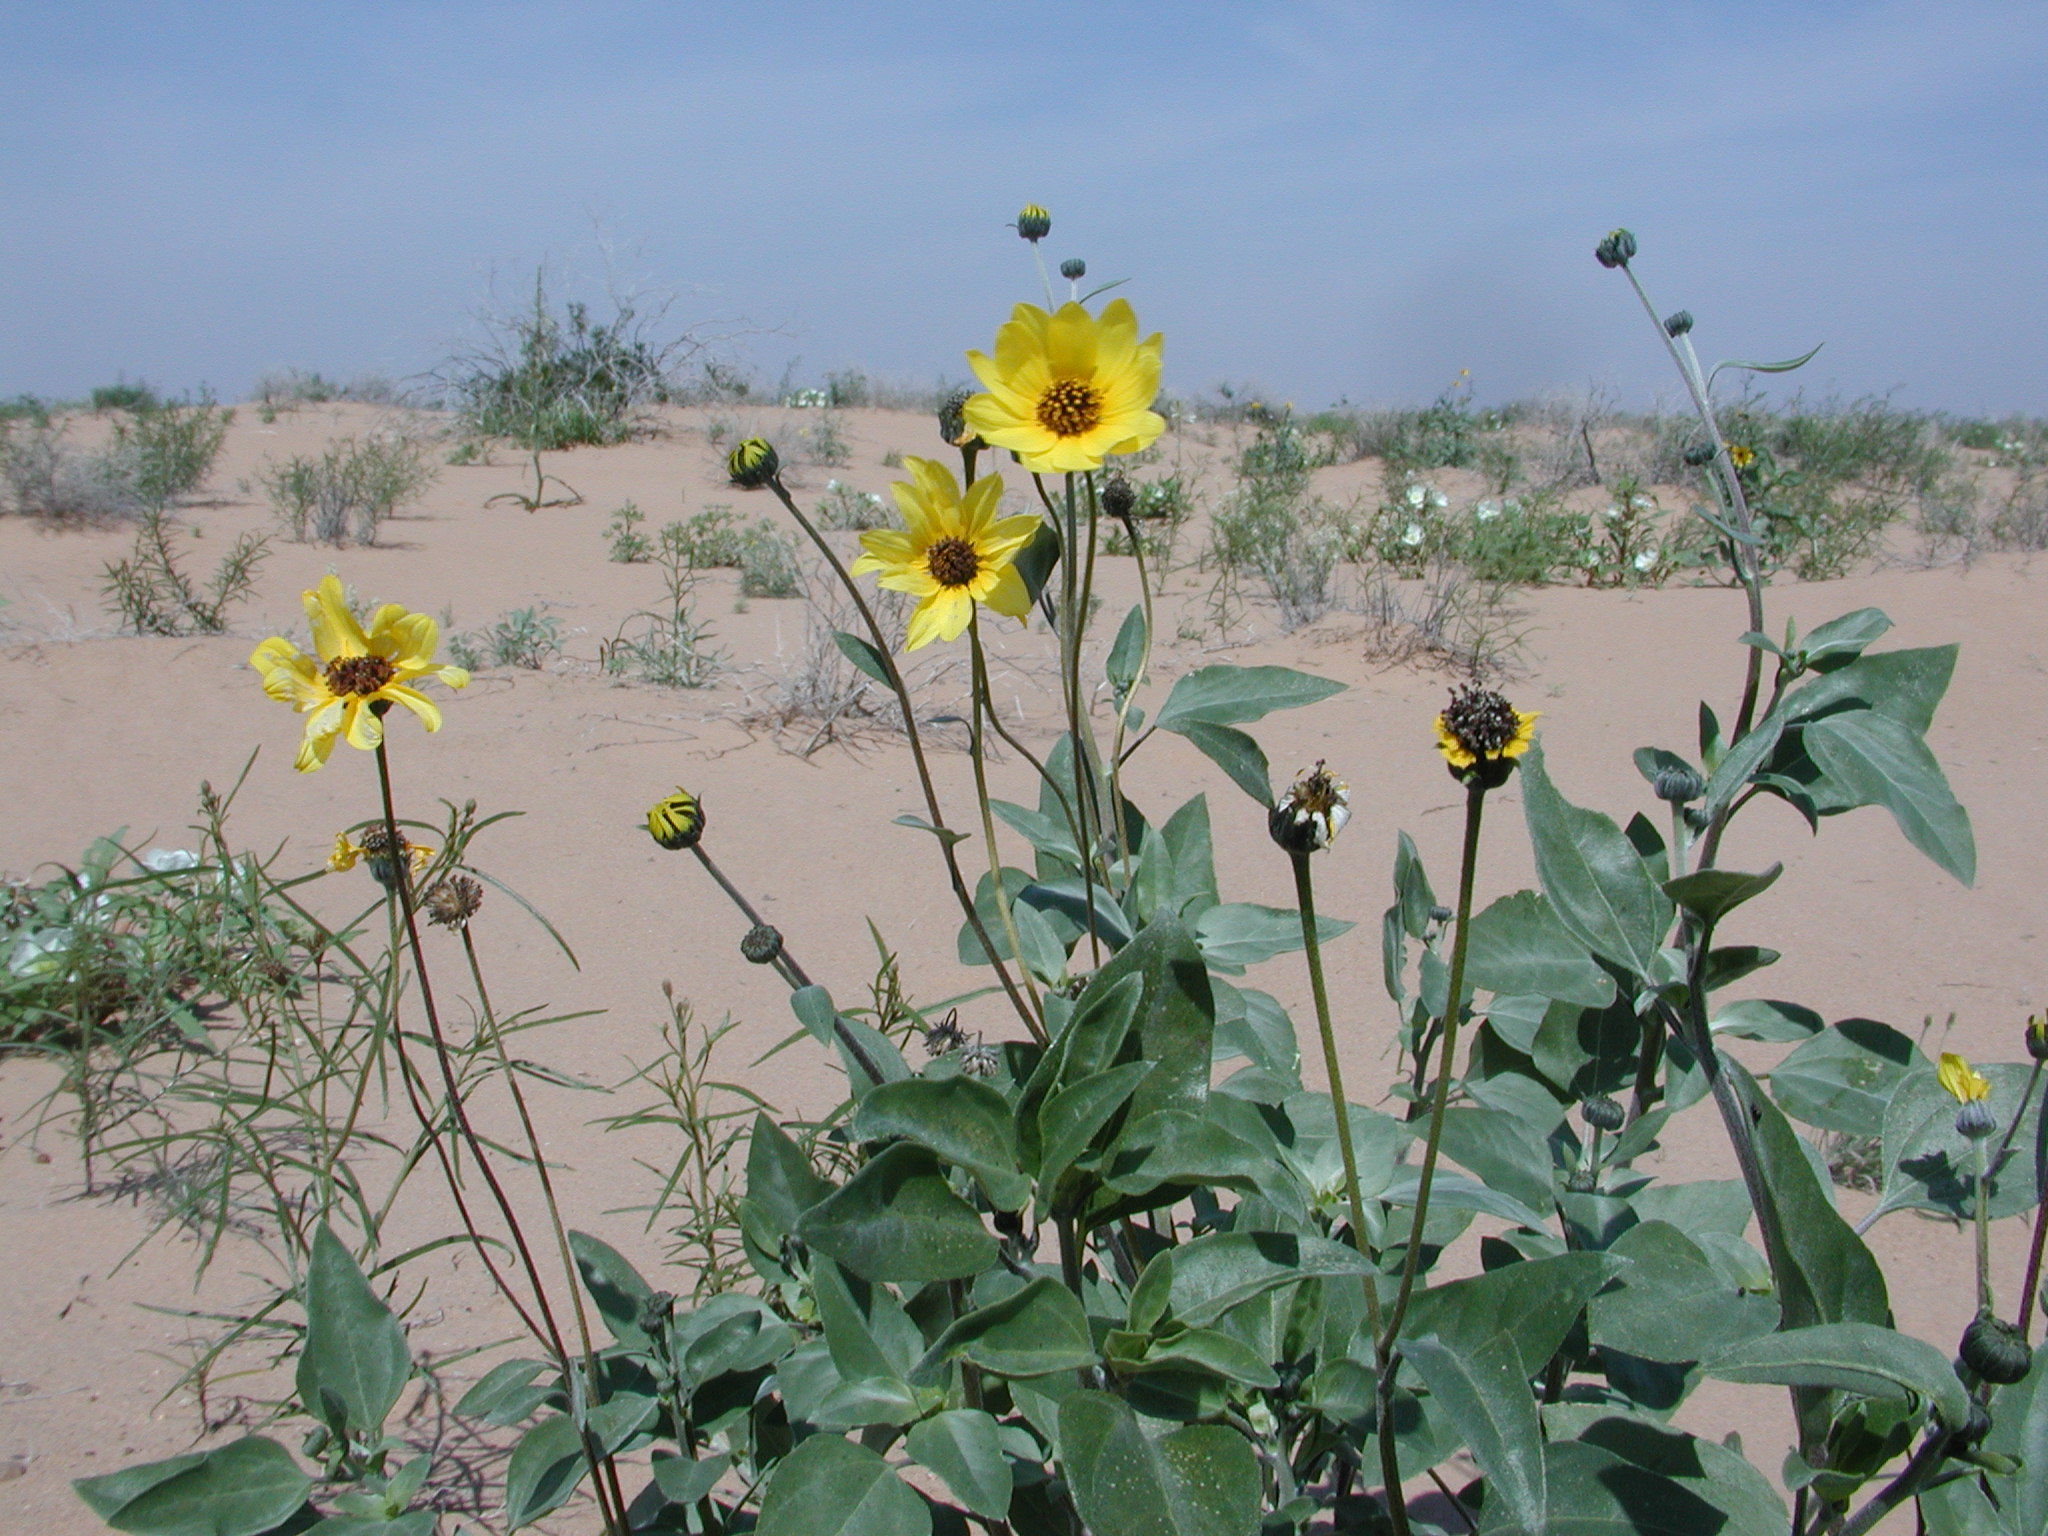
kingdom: Plantae
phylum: Tracheophyta
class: Magnoliopsida
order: Asterales
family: Asteraceae
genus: Helianthus
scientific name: Helianthus petiolaris
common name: Lesser sunflower
